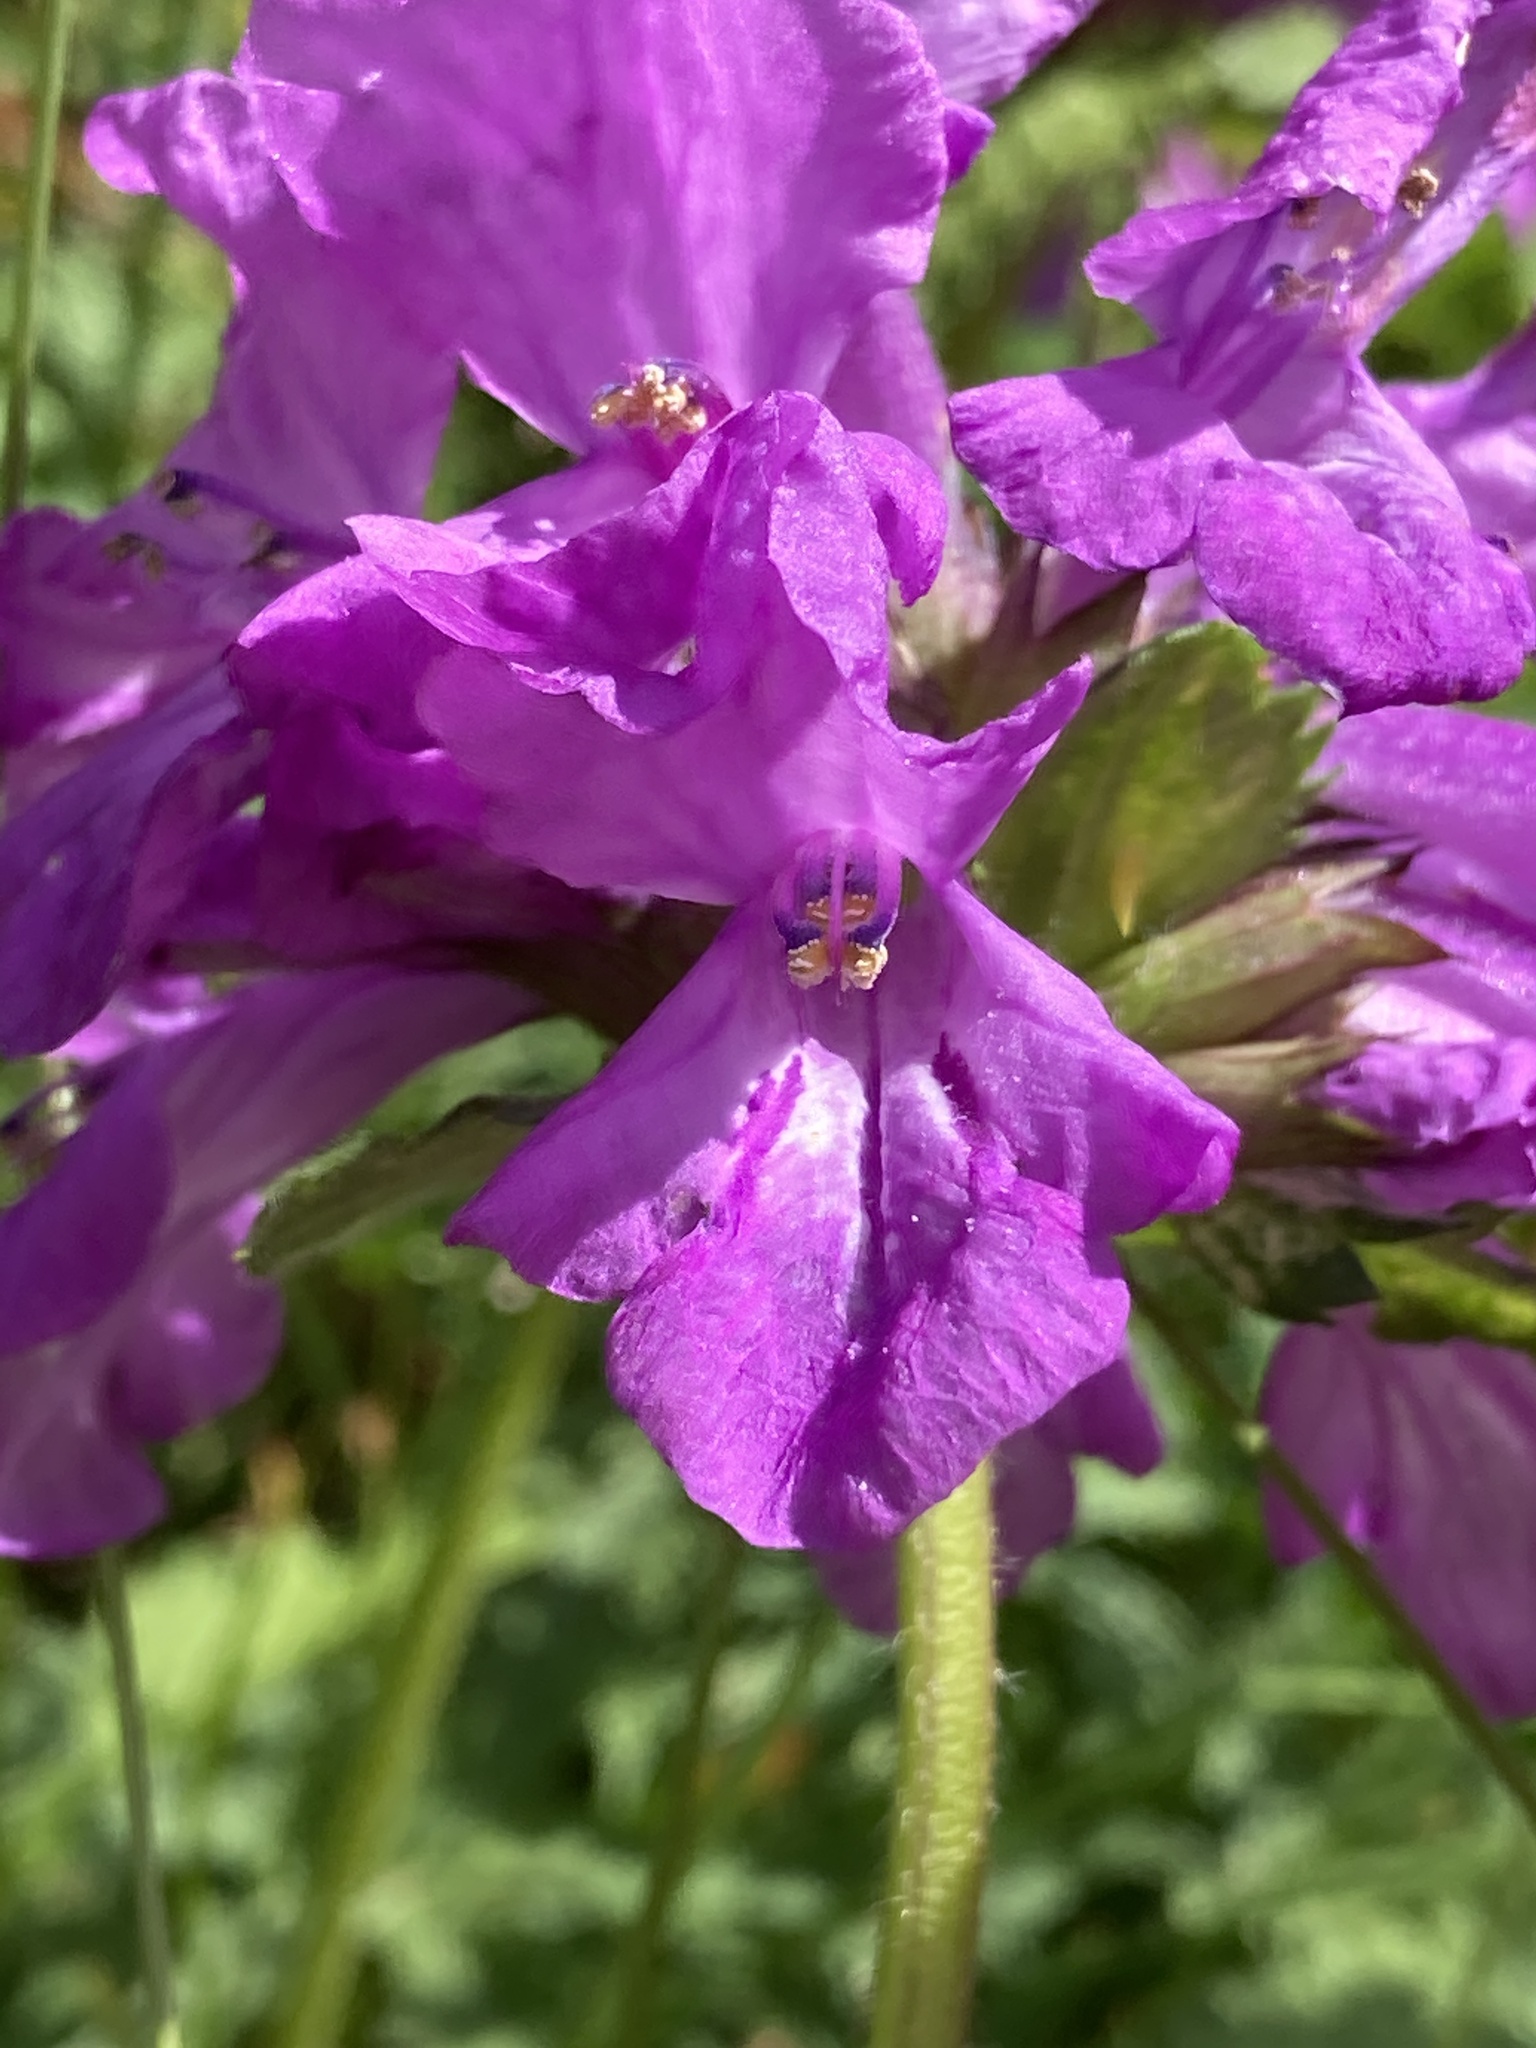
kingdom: Plantae
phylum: Tracheophyta
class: Magnoliopsida
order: Lamiales
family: Lamiaceae
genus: Betonica
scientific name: Betonica macrantha
